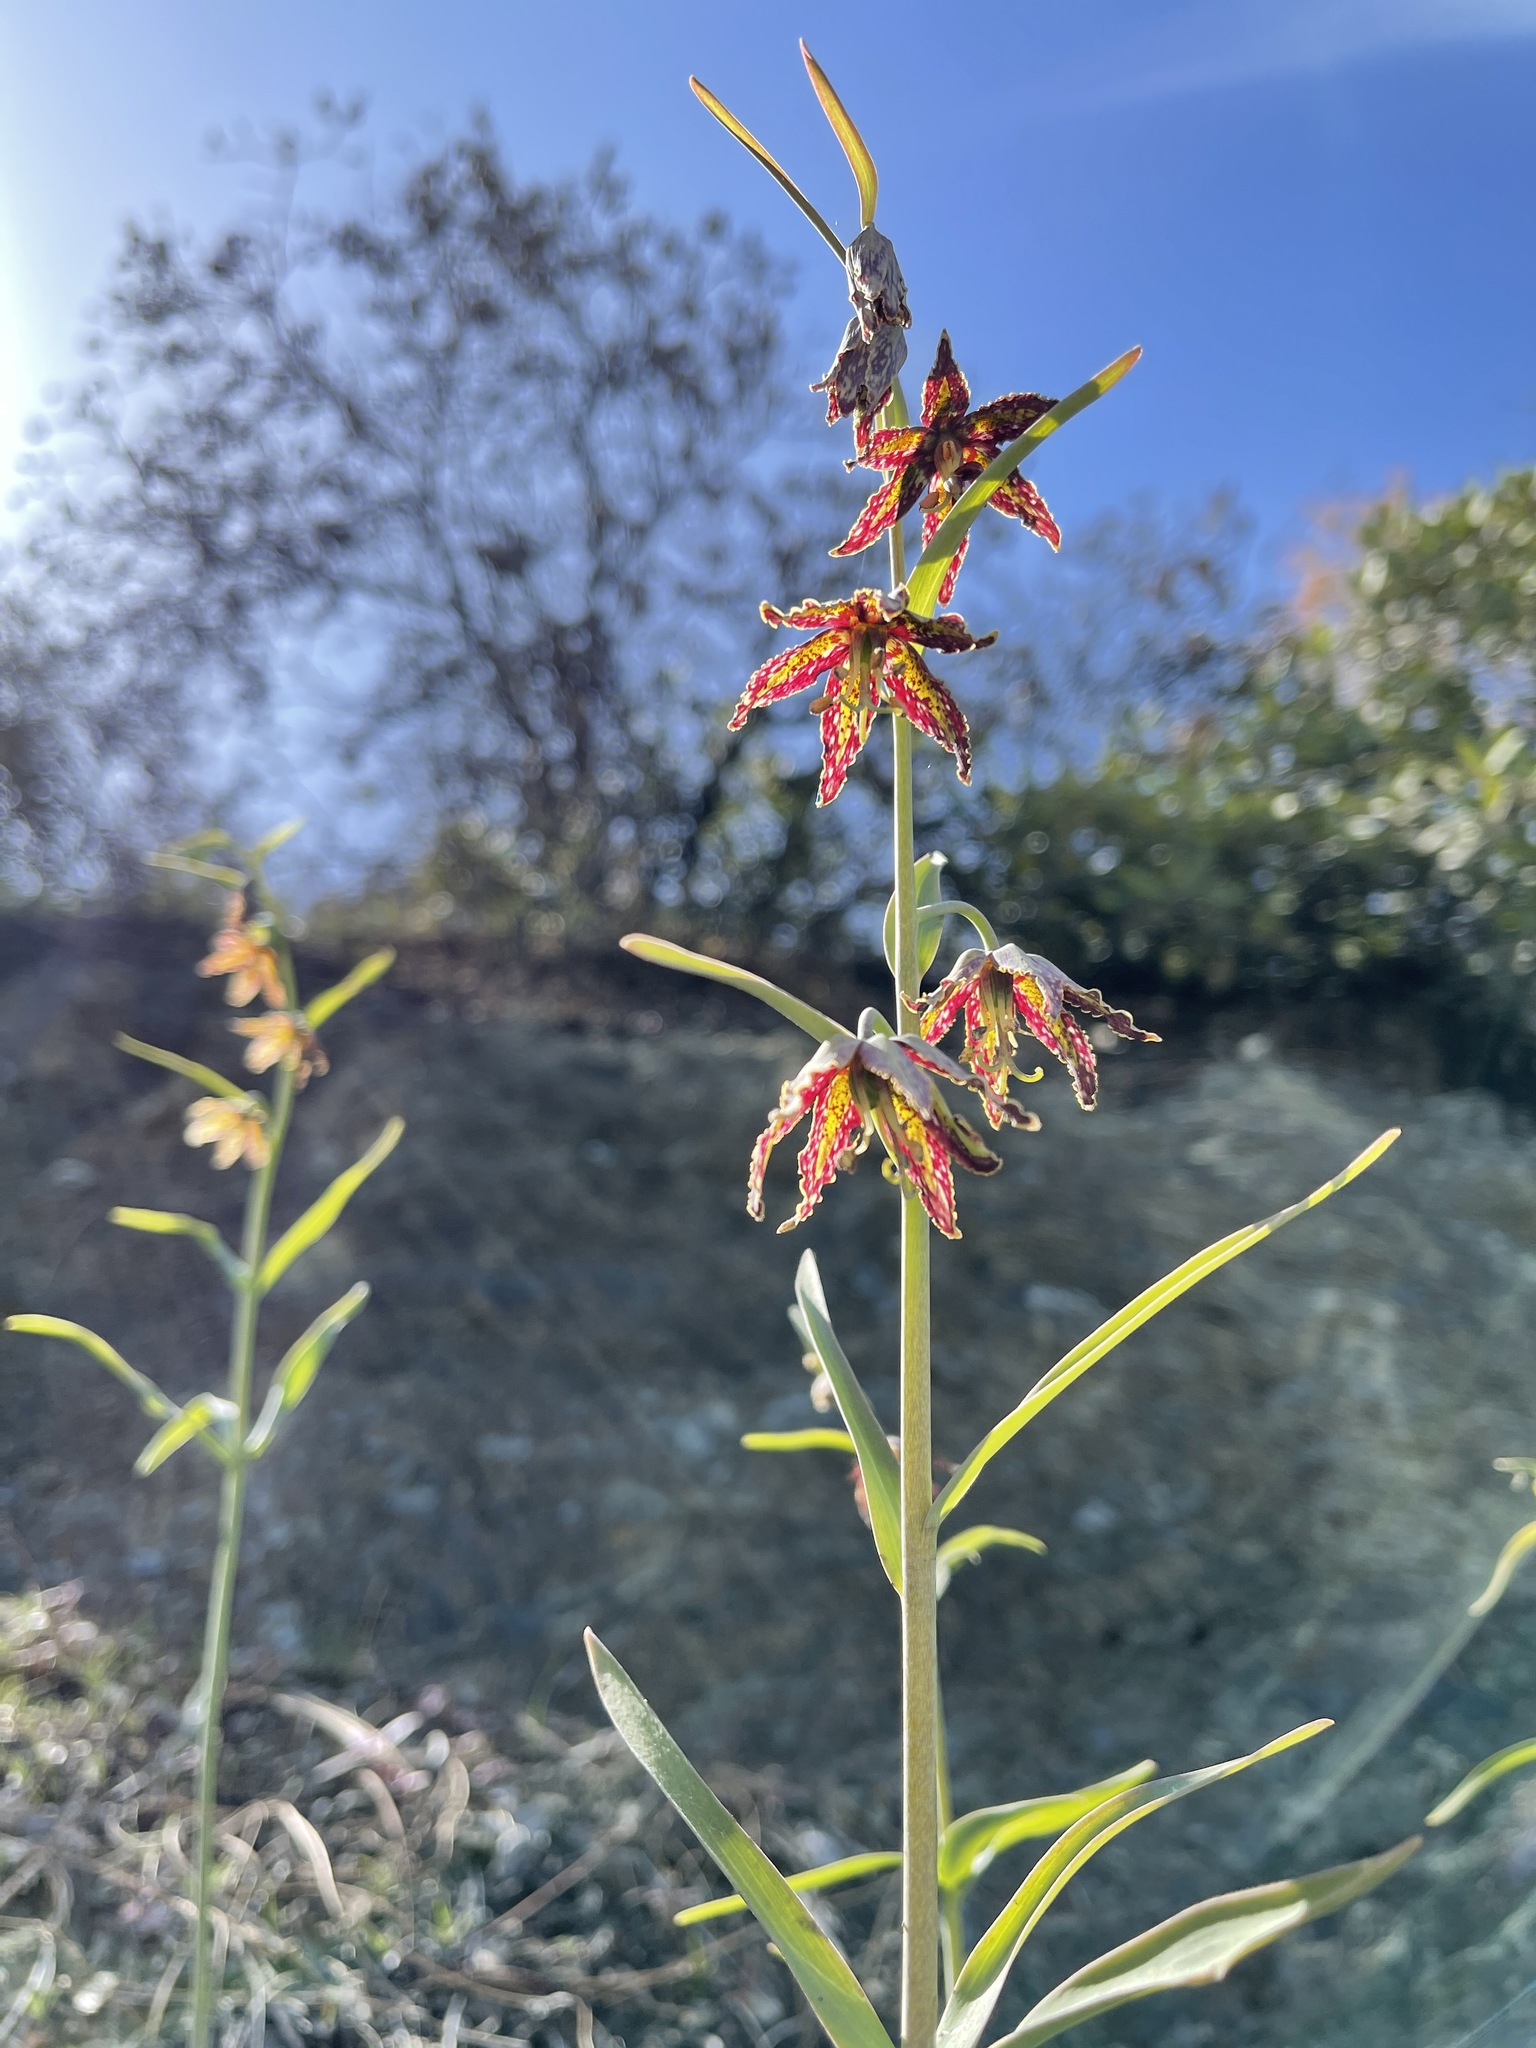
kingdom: Plantae
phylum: Tracheophyta
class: Liliopsida
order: Liliales
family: Liliaceae
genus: Fritillaria
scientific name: Fritillaria affinis
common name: Ojai fritillary
